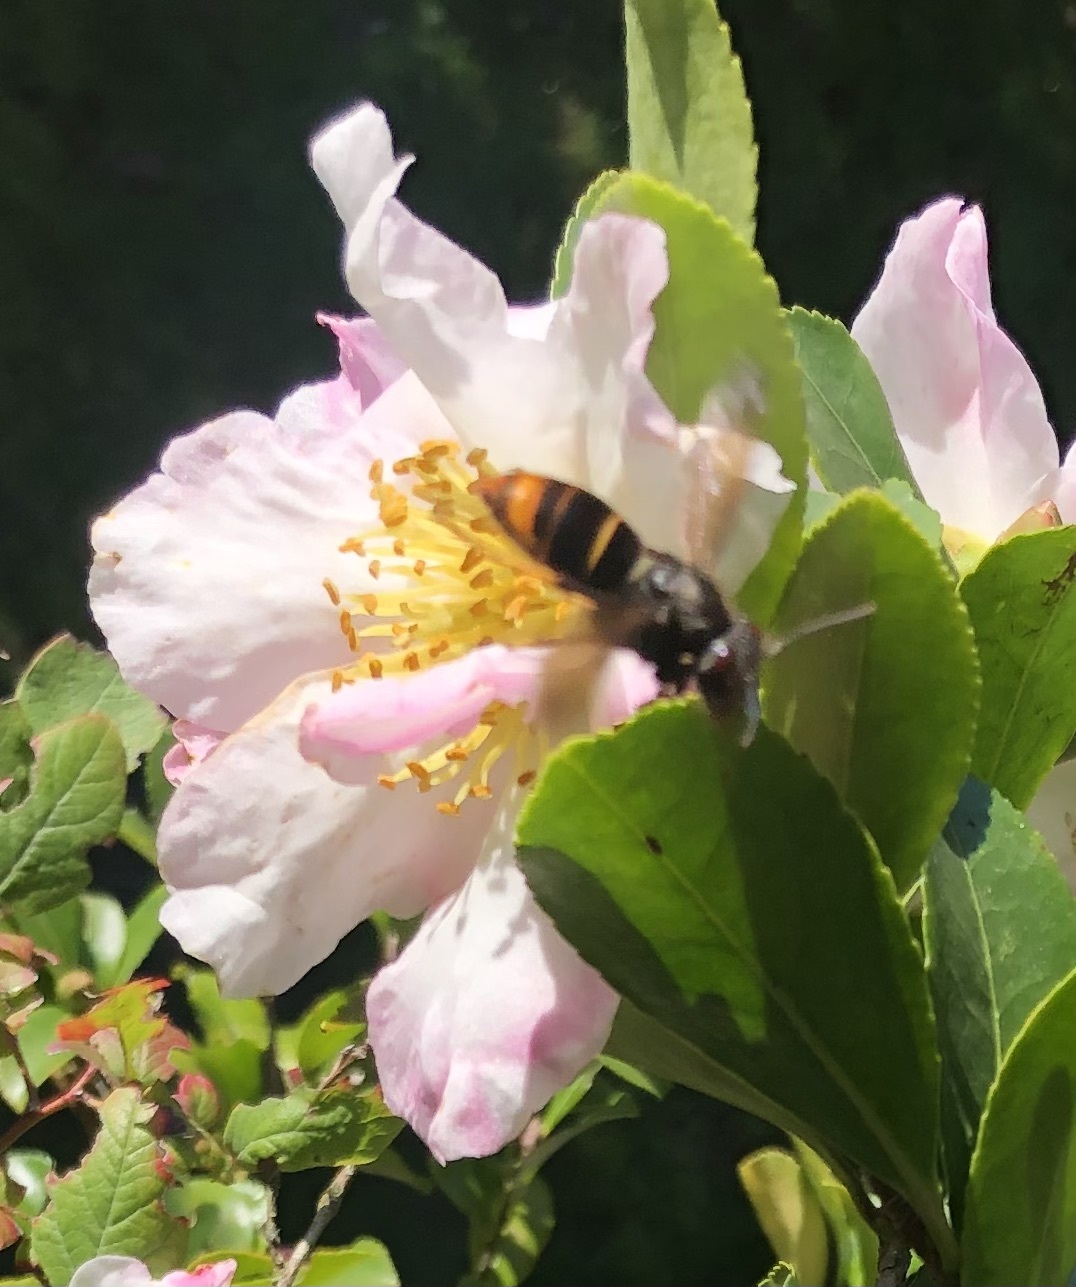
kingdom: Animalia
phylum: Arthropoda
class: Insecta
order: Hymenoptera
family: Vespidae
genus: Vespa
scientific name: Vespa velutina
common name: Asian hornet
